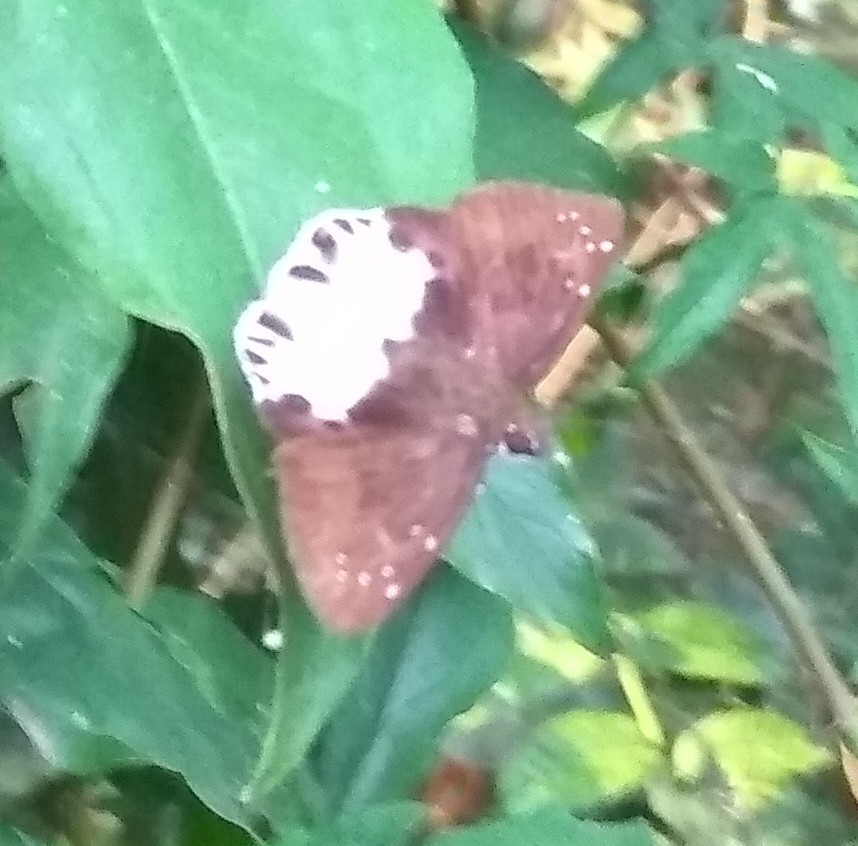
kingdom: Animalia
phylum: Arthropoda
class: Insecta
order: Lepidoptera
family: Hesperiidae
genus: Tagiades
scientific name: Tagiades litigiosa
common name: Water snow flat
